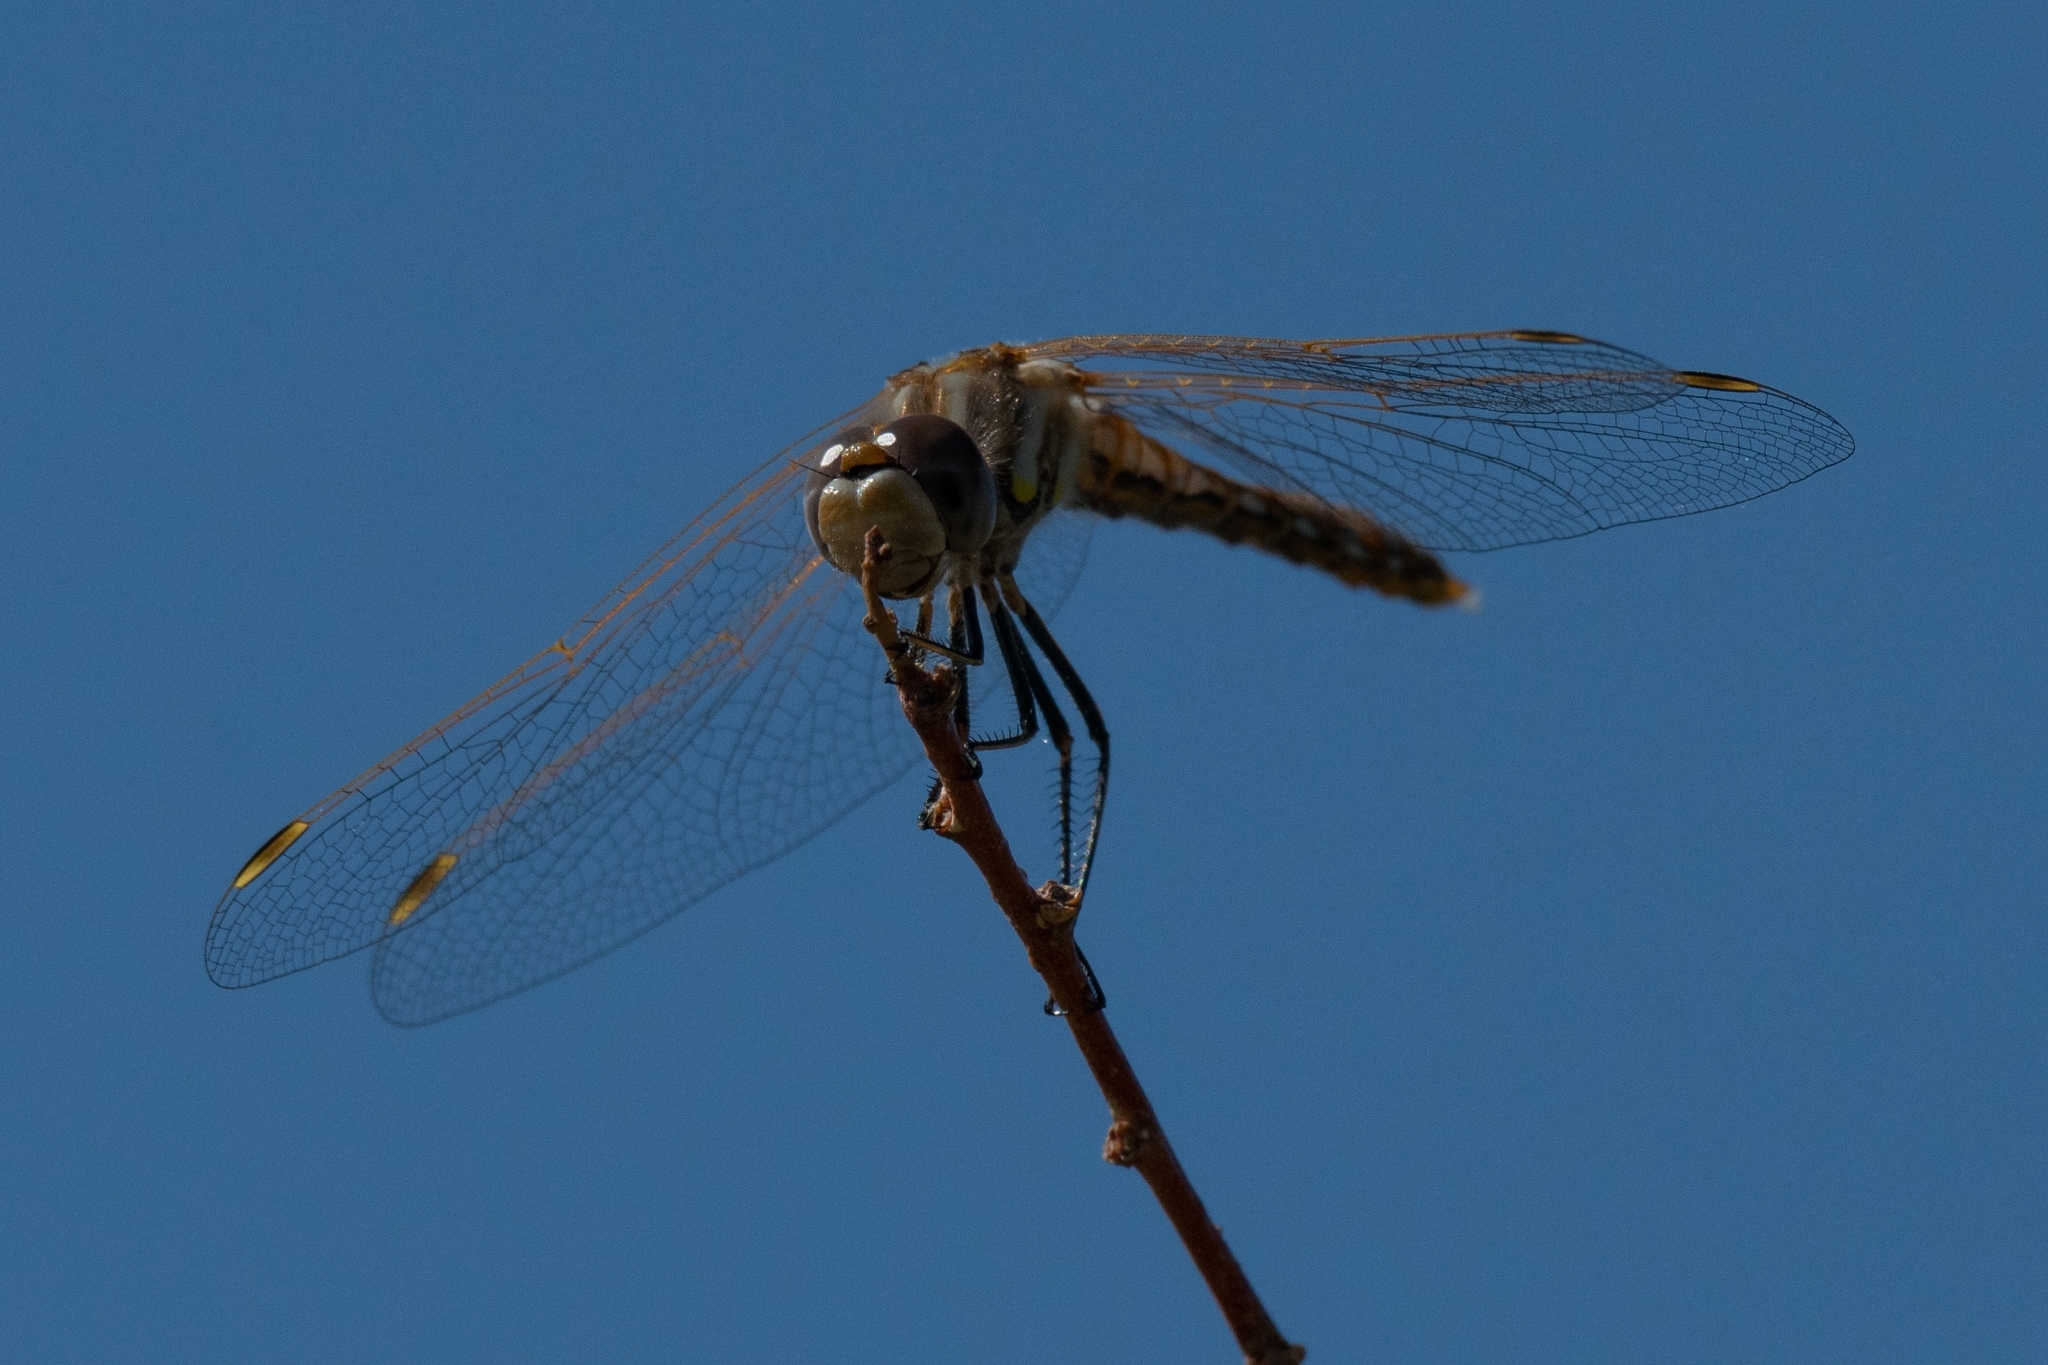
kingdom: Animalia
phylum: Arthropoda
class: Insecta
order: Odonata
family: Libellulidae
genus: Sympetrum
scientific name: Sympetrum corruptum
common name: Variegated meadowhawk
